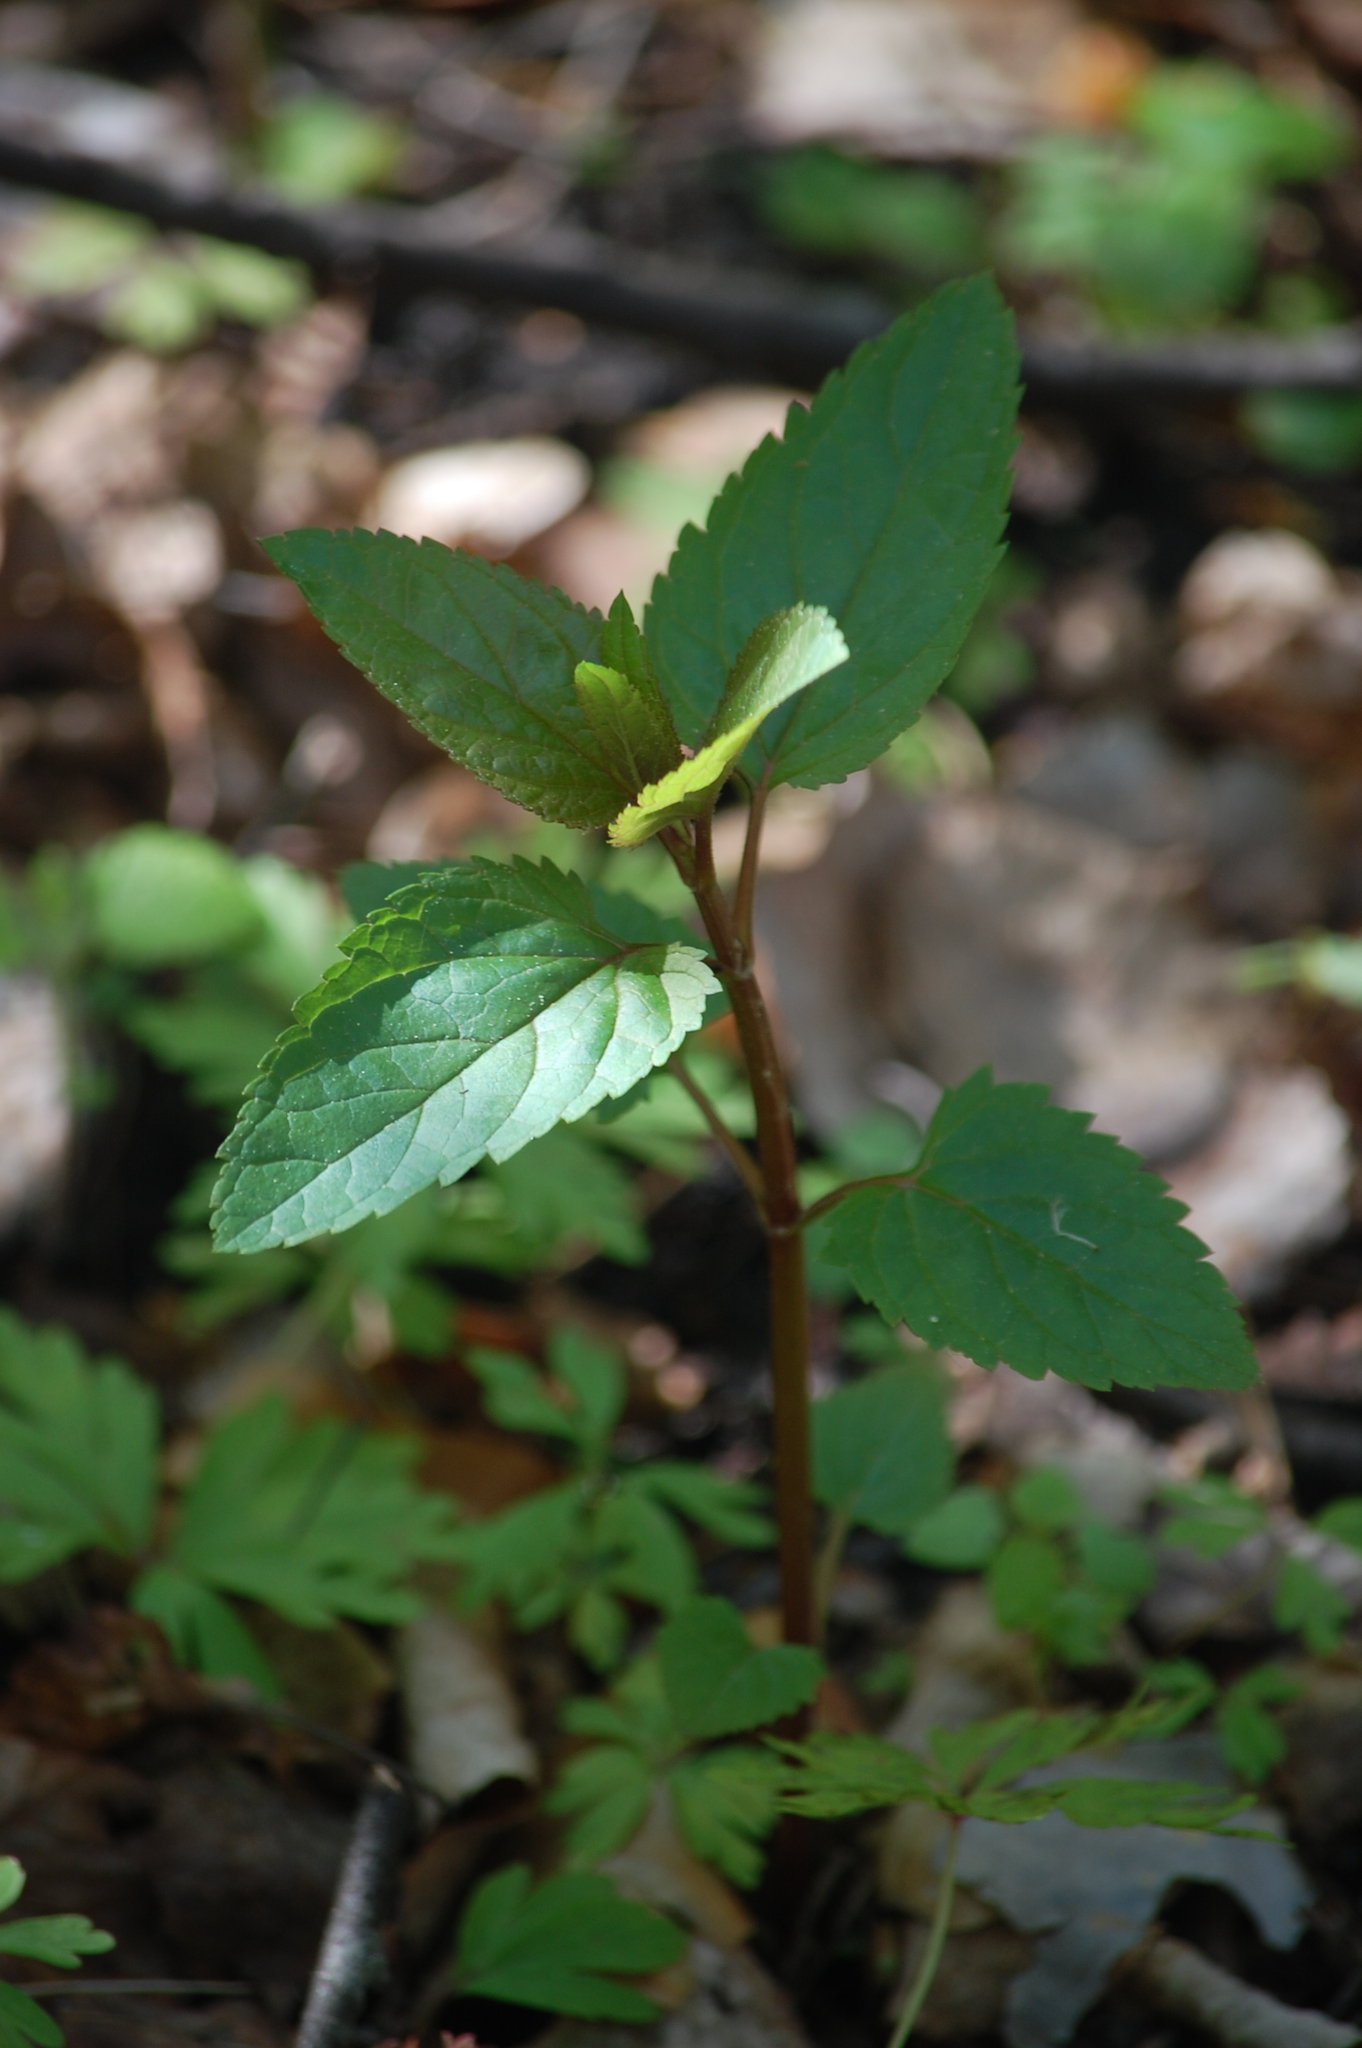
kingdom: Plantae
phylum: Tracheophyta
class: Magnoliopsida
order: Lamiales
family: Scrophulariaceae
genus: Scrophularia
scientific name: Scrophularia nodosa
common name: Common figwort
